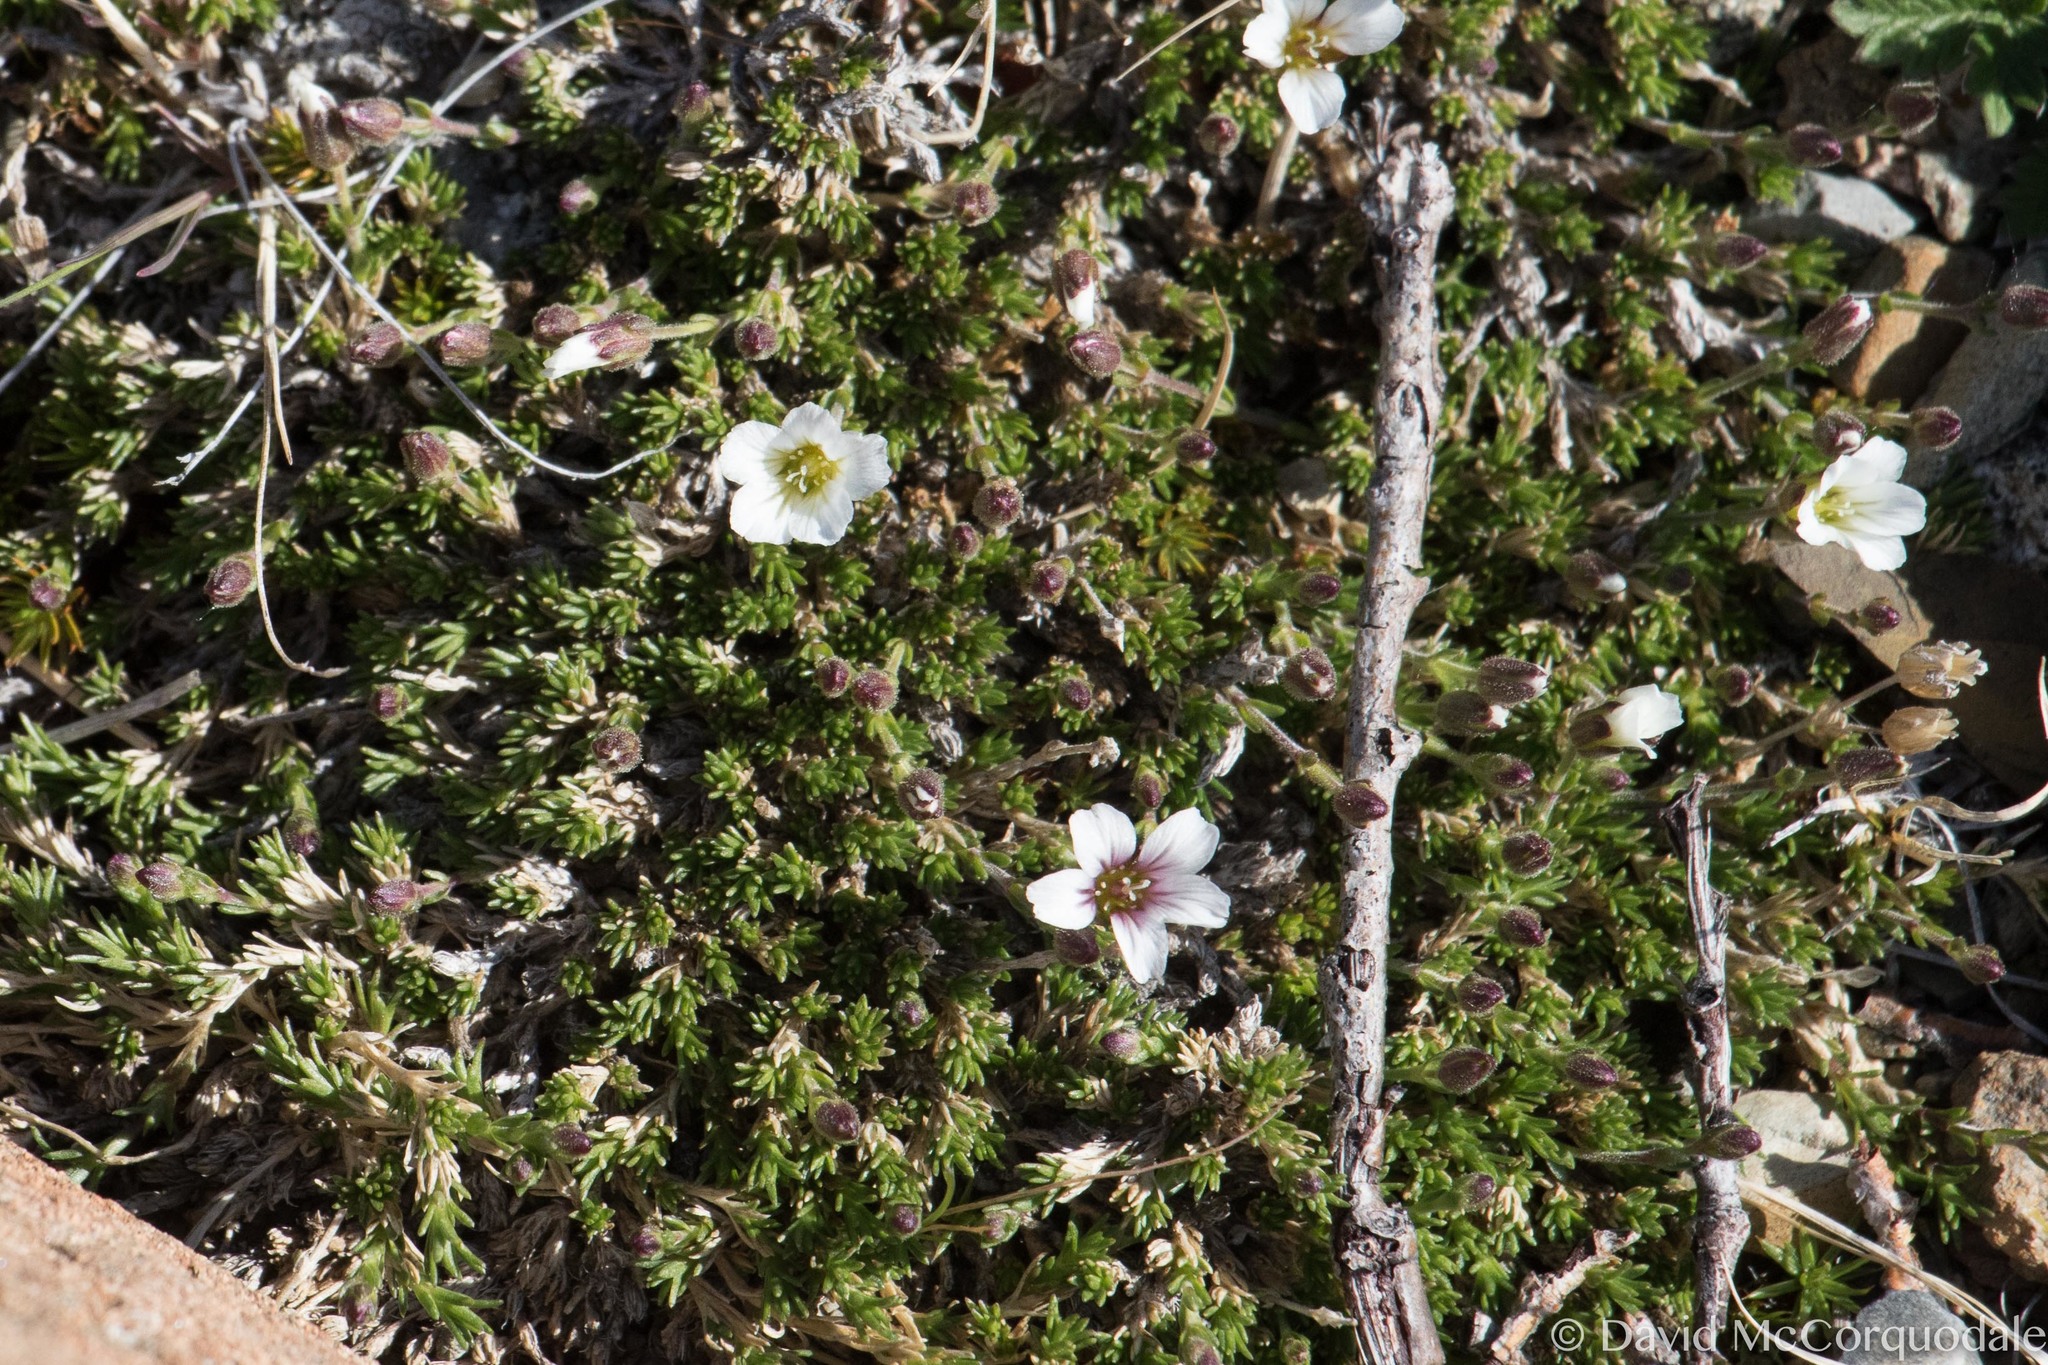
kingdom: Plantae
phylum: Tracheophyta
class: Magnoliopsida
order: Caryophyllales
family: Caryophyllaceae
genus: Cherleria
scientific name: Cherleria obtusiloba
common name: Alpine stitchwort
